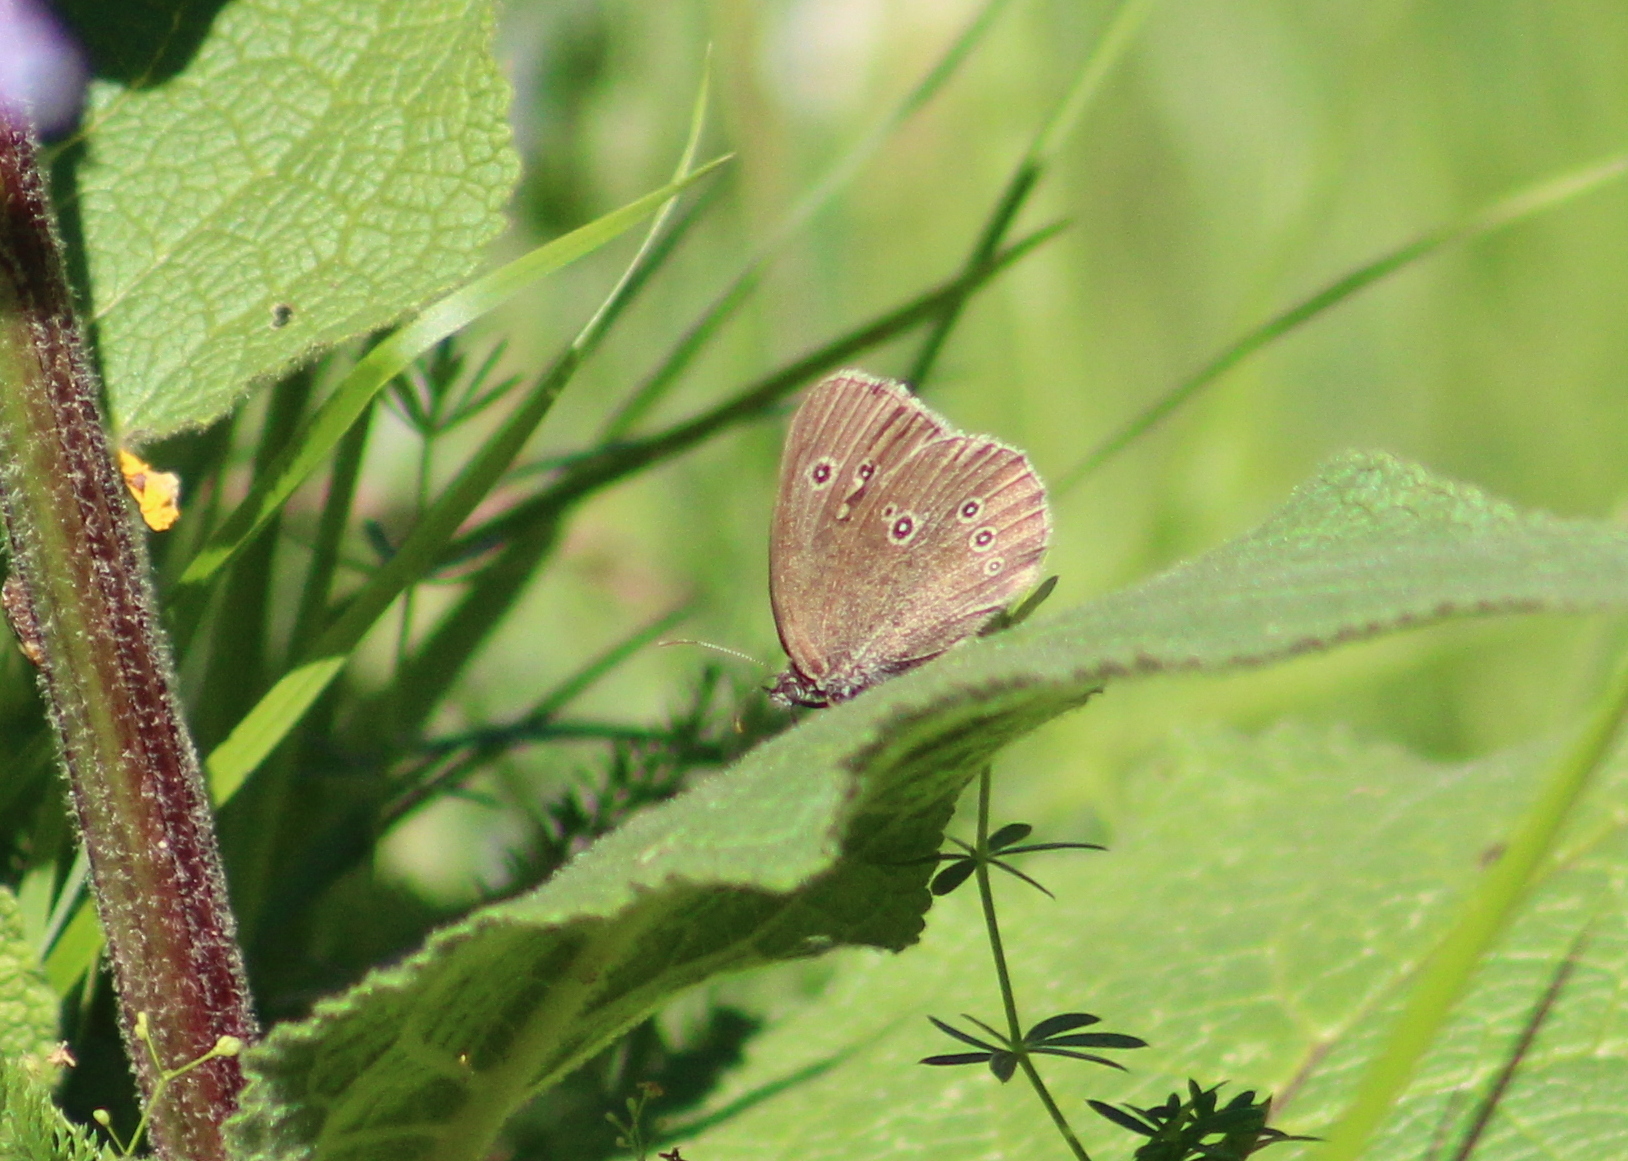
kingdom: Animalia
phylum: Arthropoda
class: Insecta
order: Lepidoptera
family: Nymphalidae
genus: Aphantopus
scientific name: Aphantopus hyperantus
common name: Ringlet
